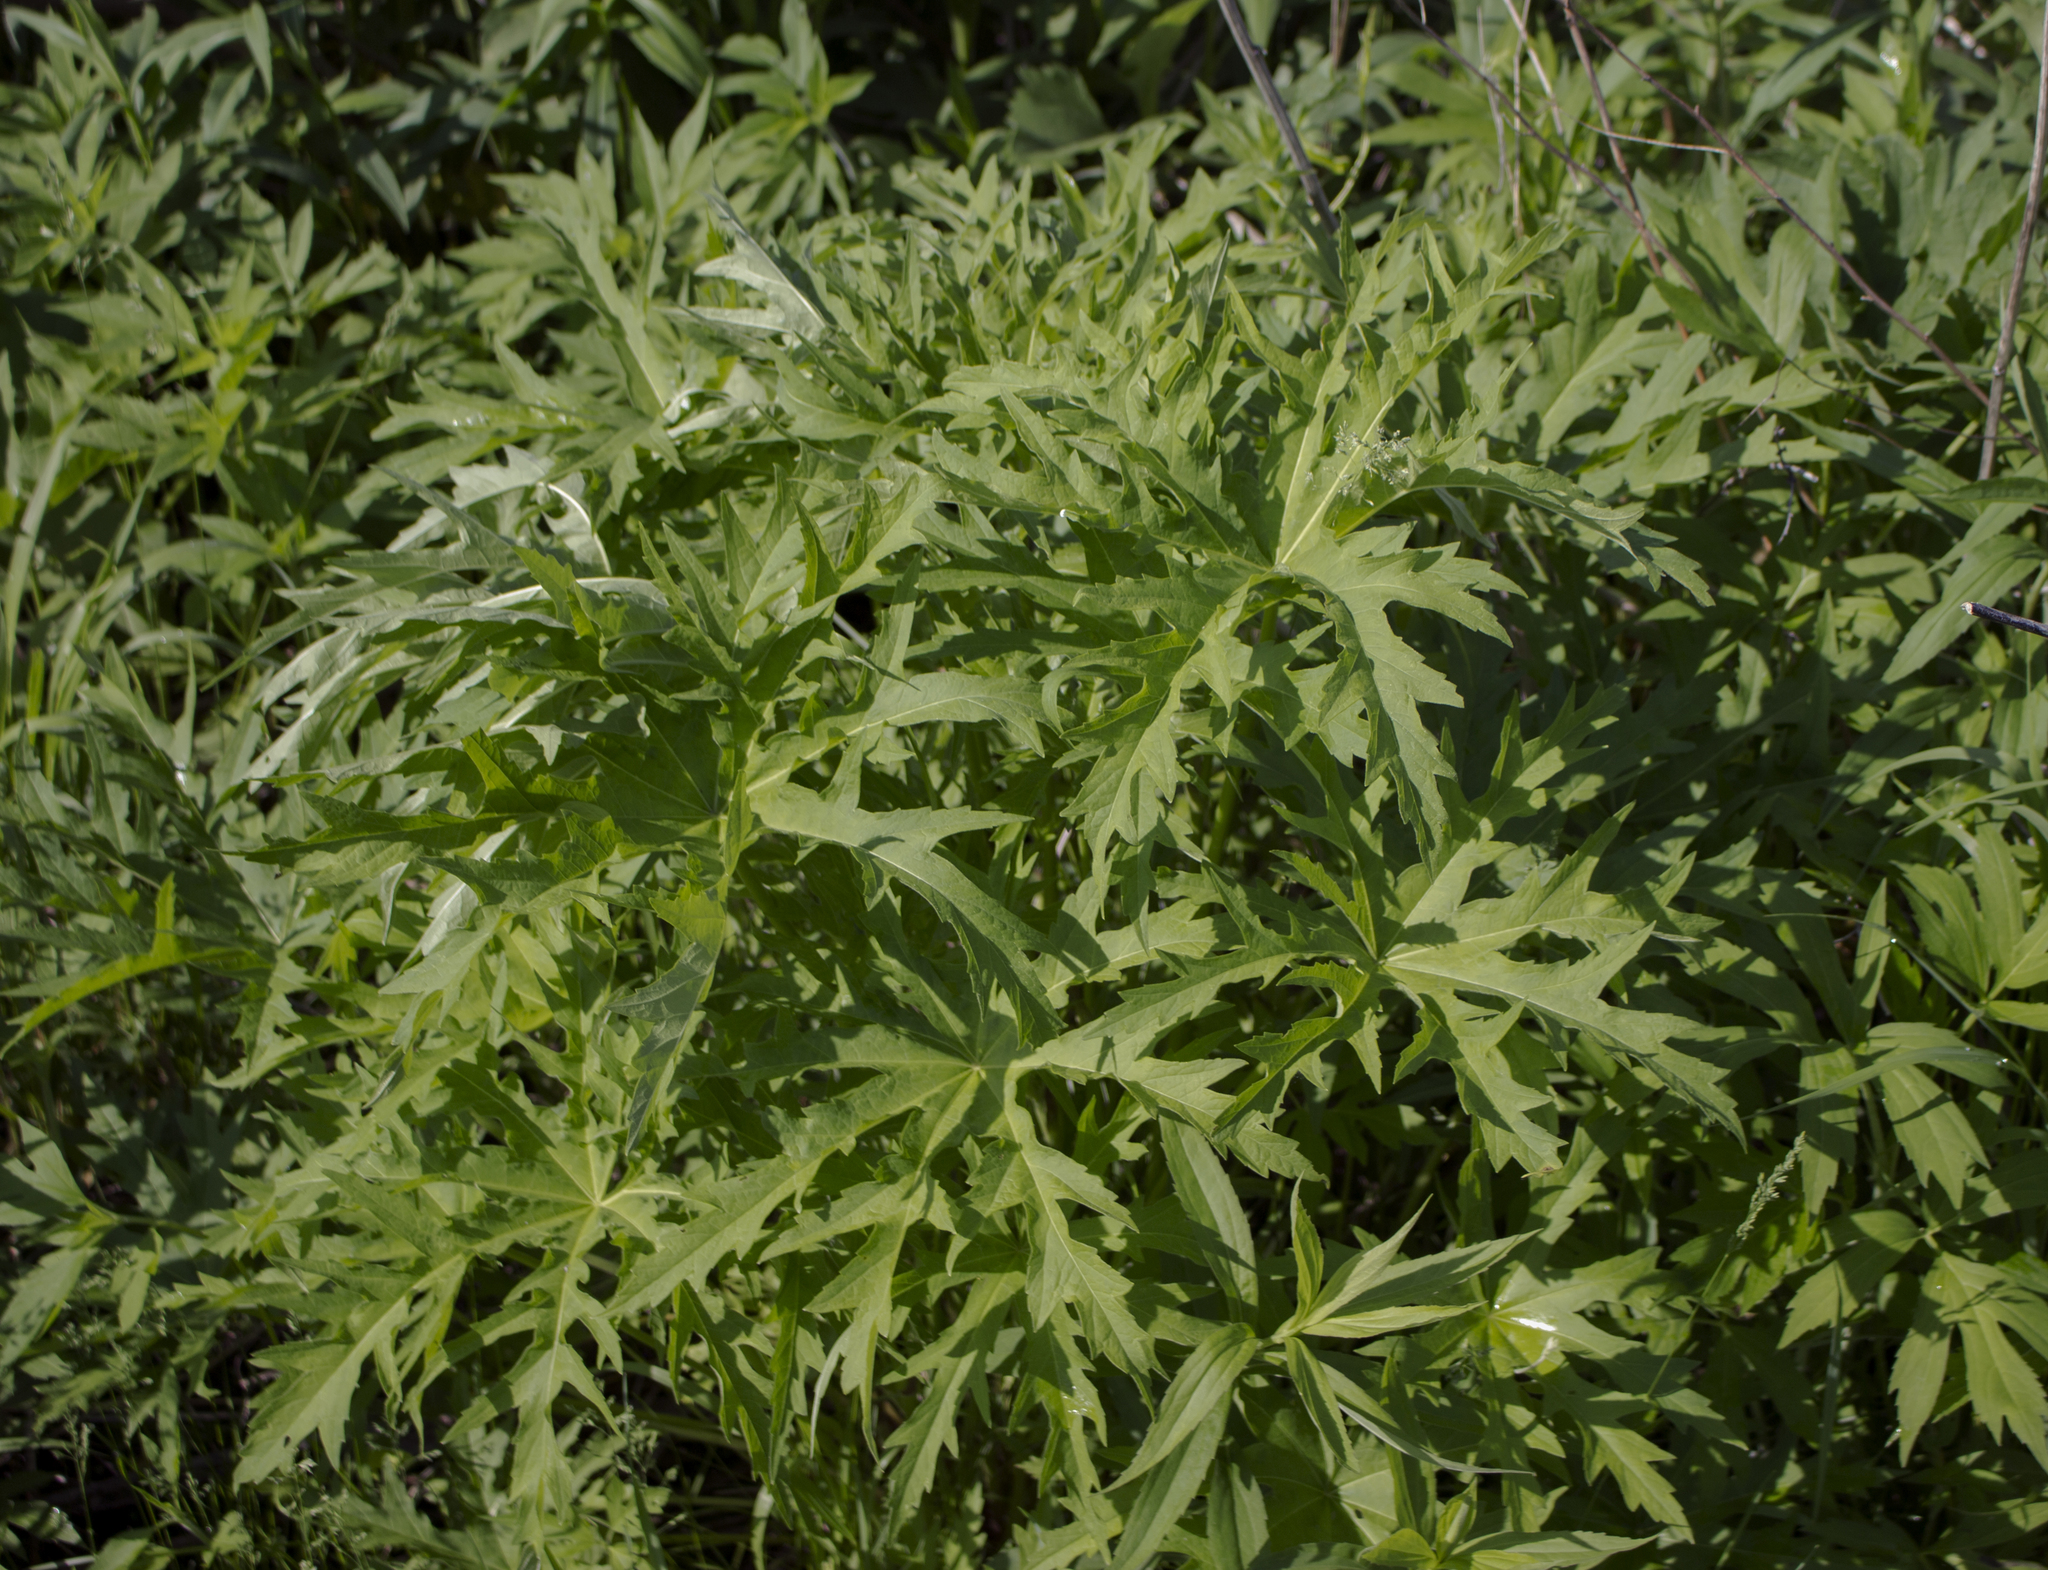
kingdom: Plantae
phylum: Tracheophyta
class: Magnoliopsida
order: Malvales
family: Malvaceae
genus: Napaea
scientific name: Napaea dioica
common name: Glade-mallow
